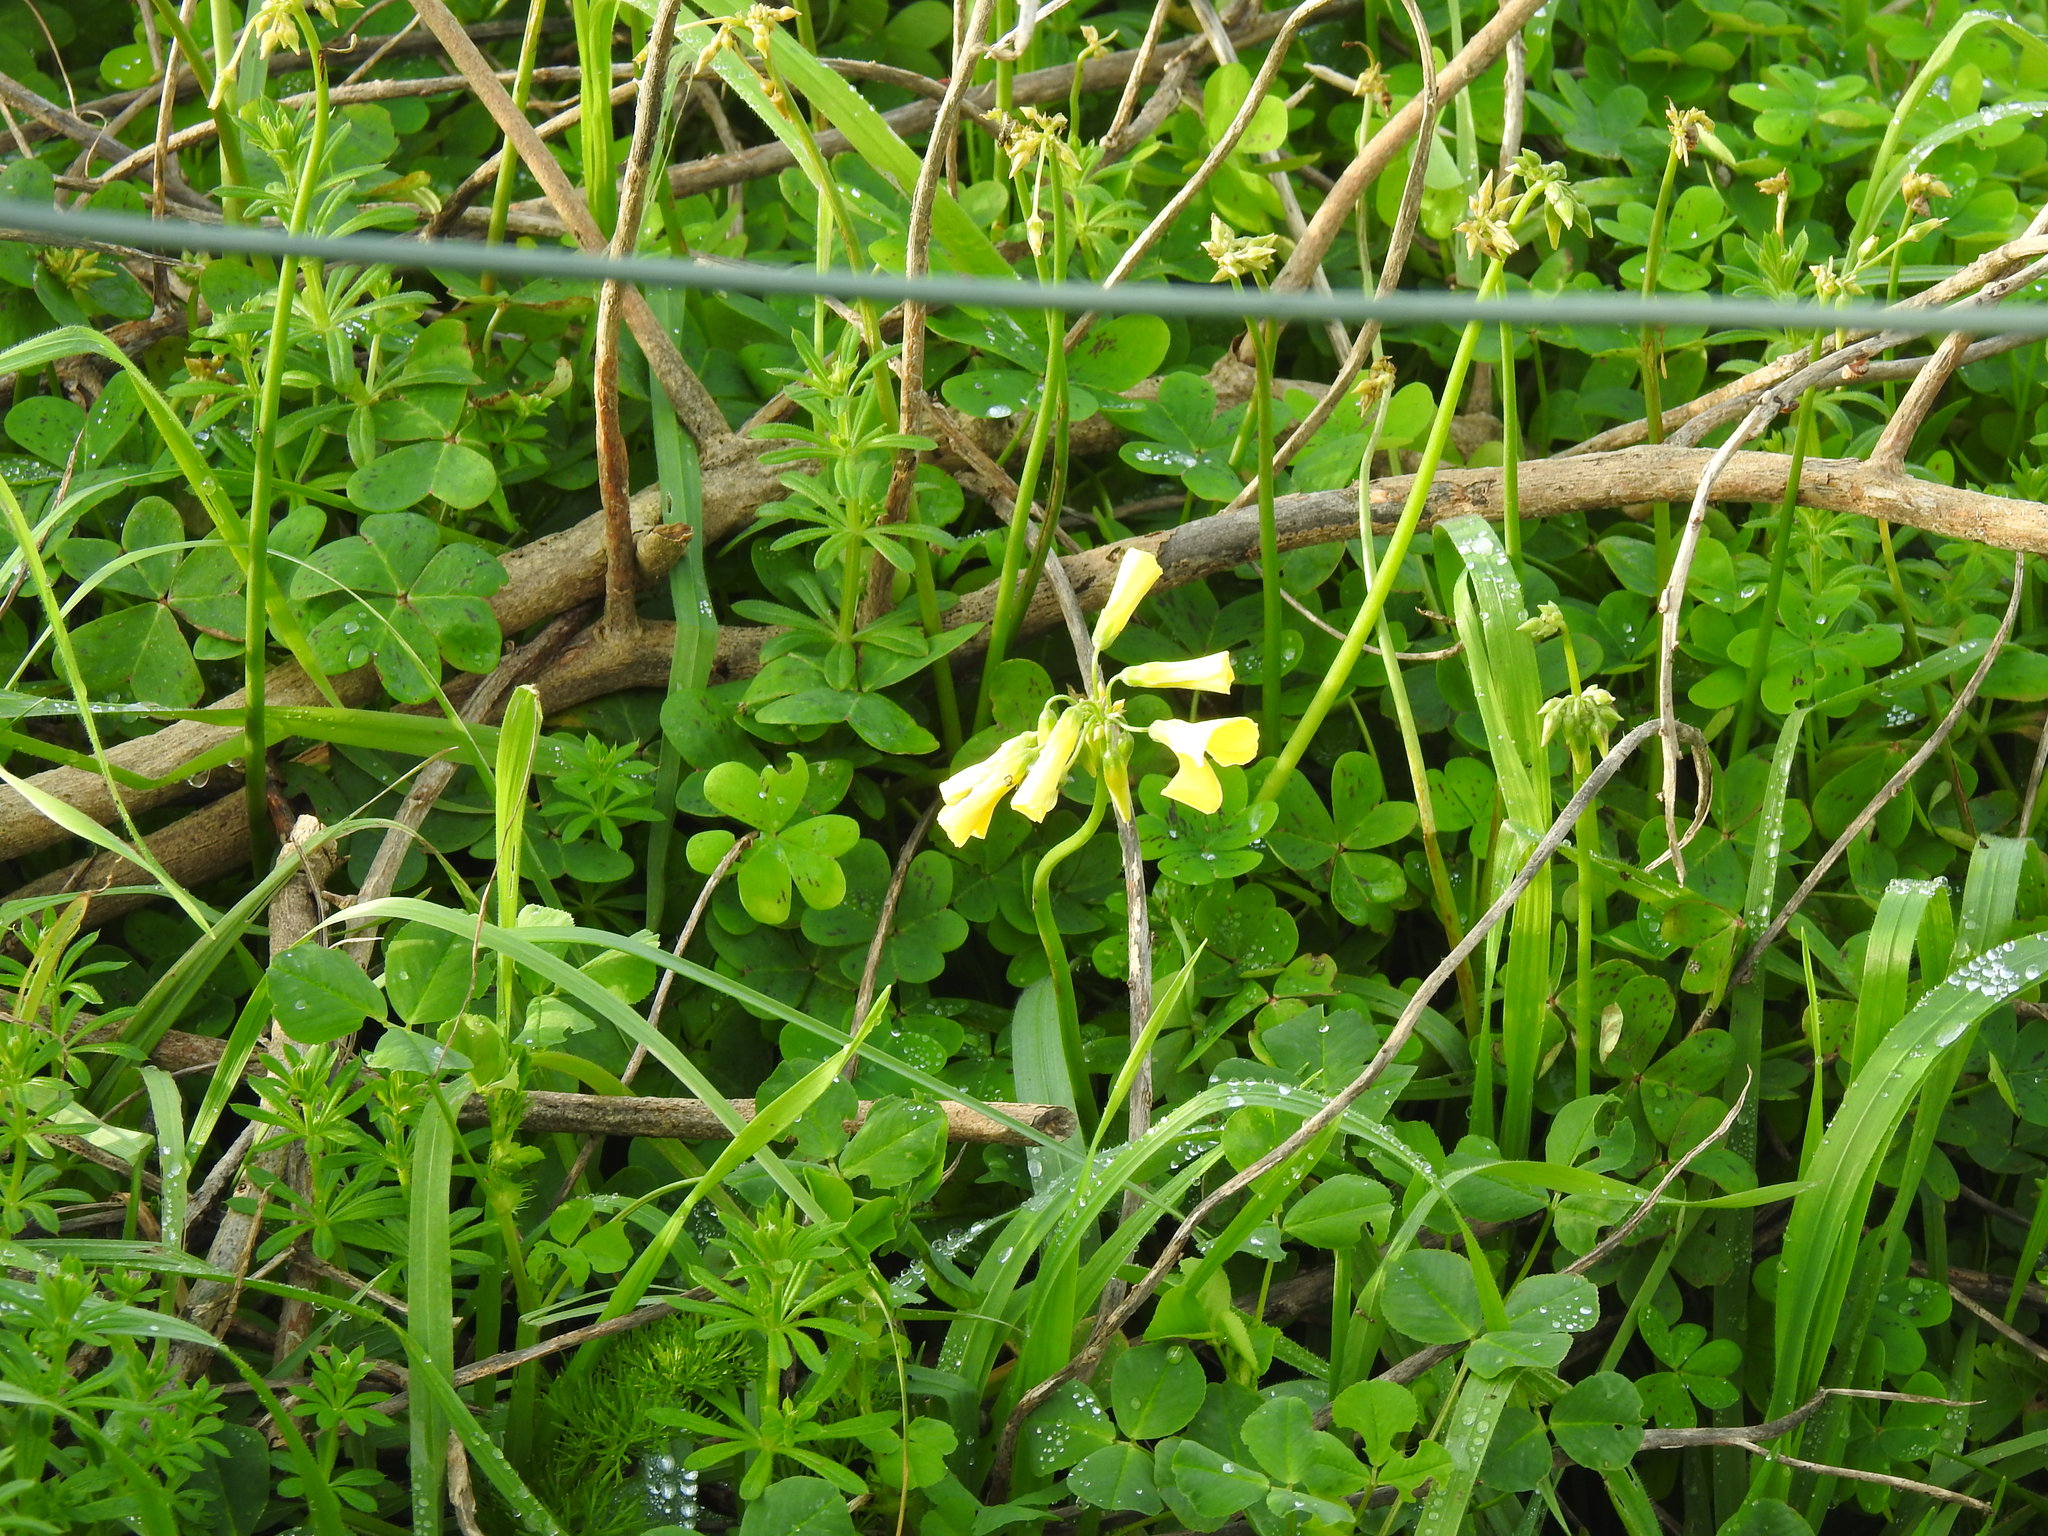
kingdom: Plantae
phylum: Tracheophyta
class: Magnoliopsida
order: Oxalidales
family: Oxalidaceae
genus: Oxalis
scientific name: Oxalis pes-caprae
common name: Bermuda-buttercup
